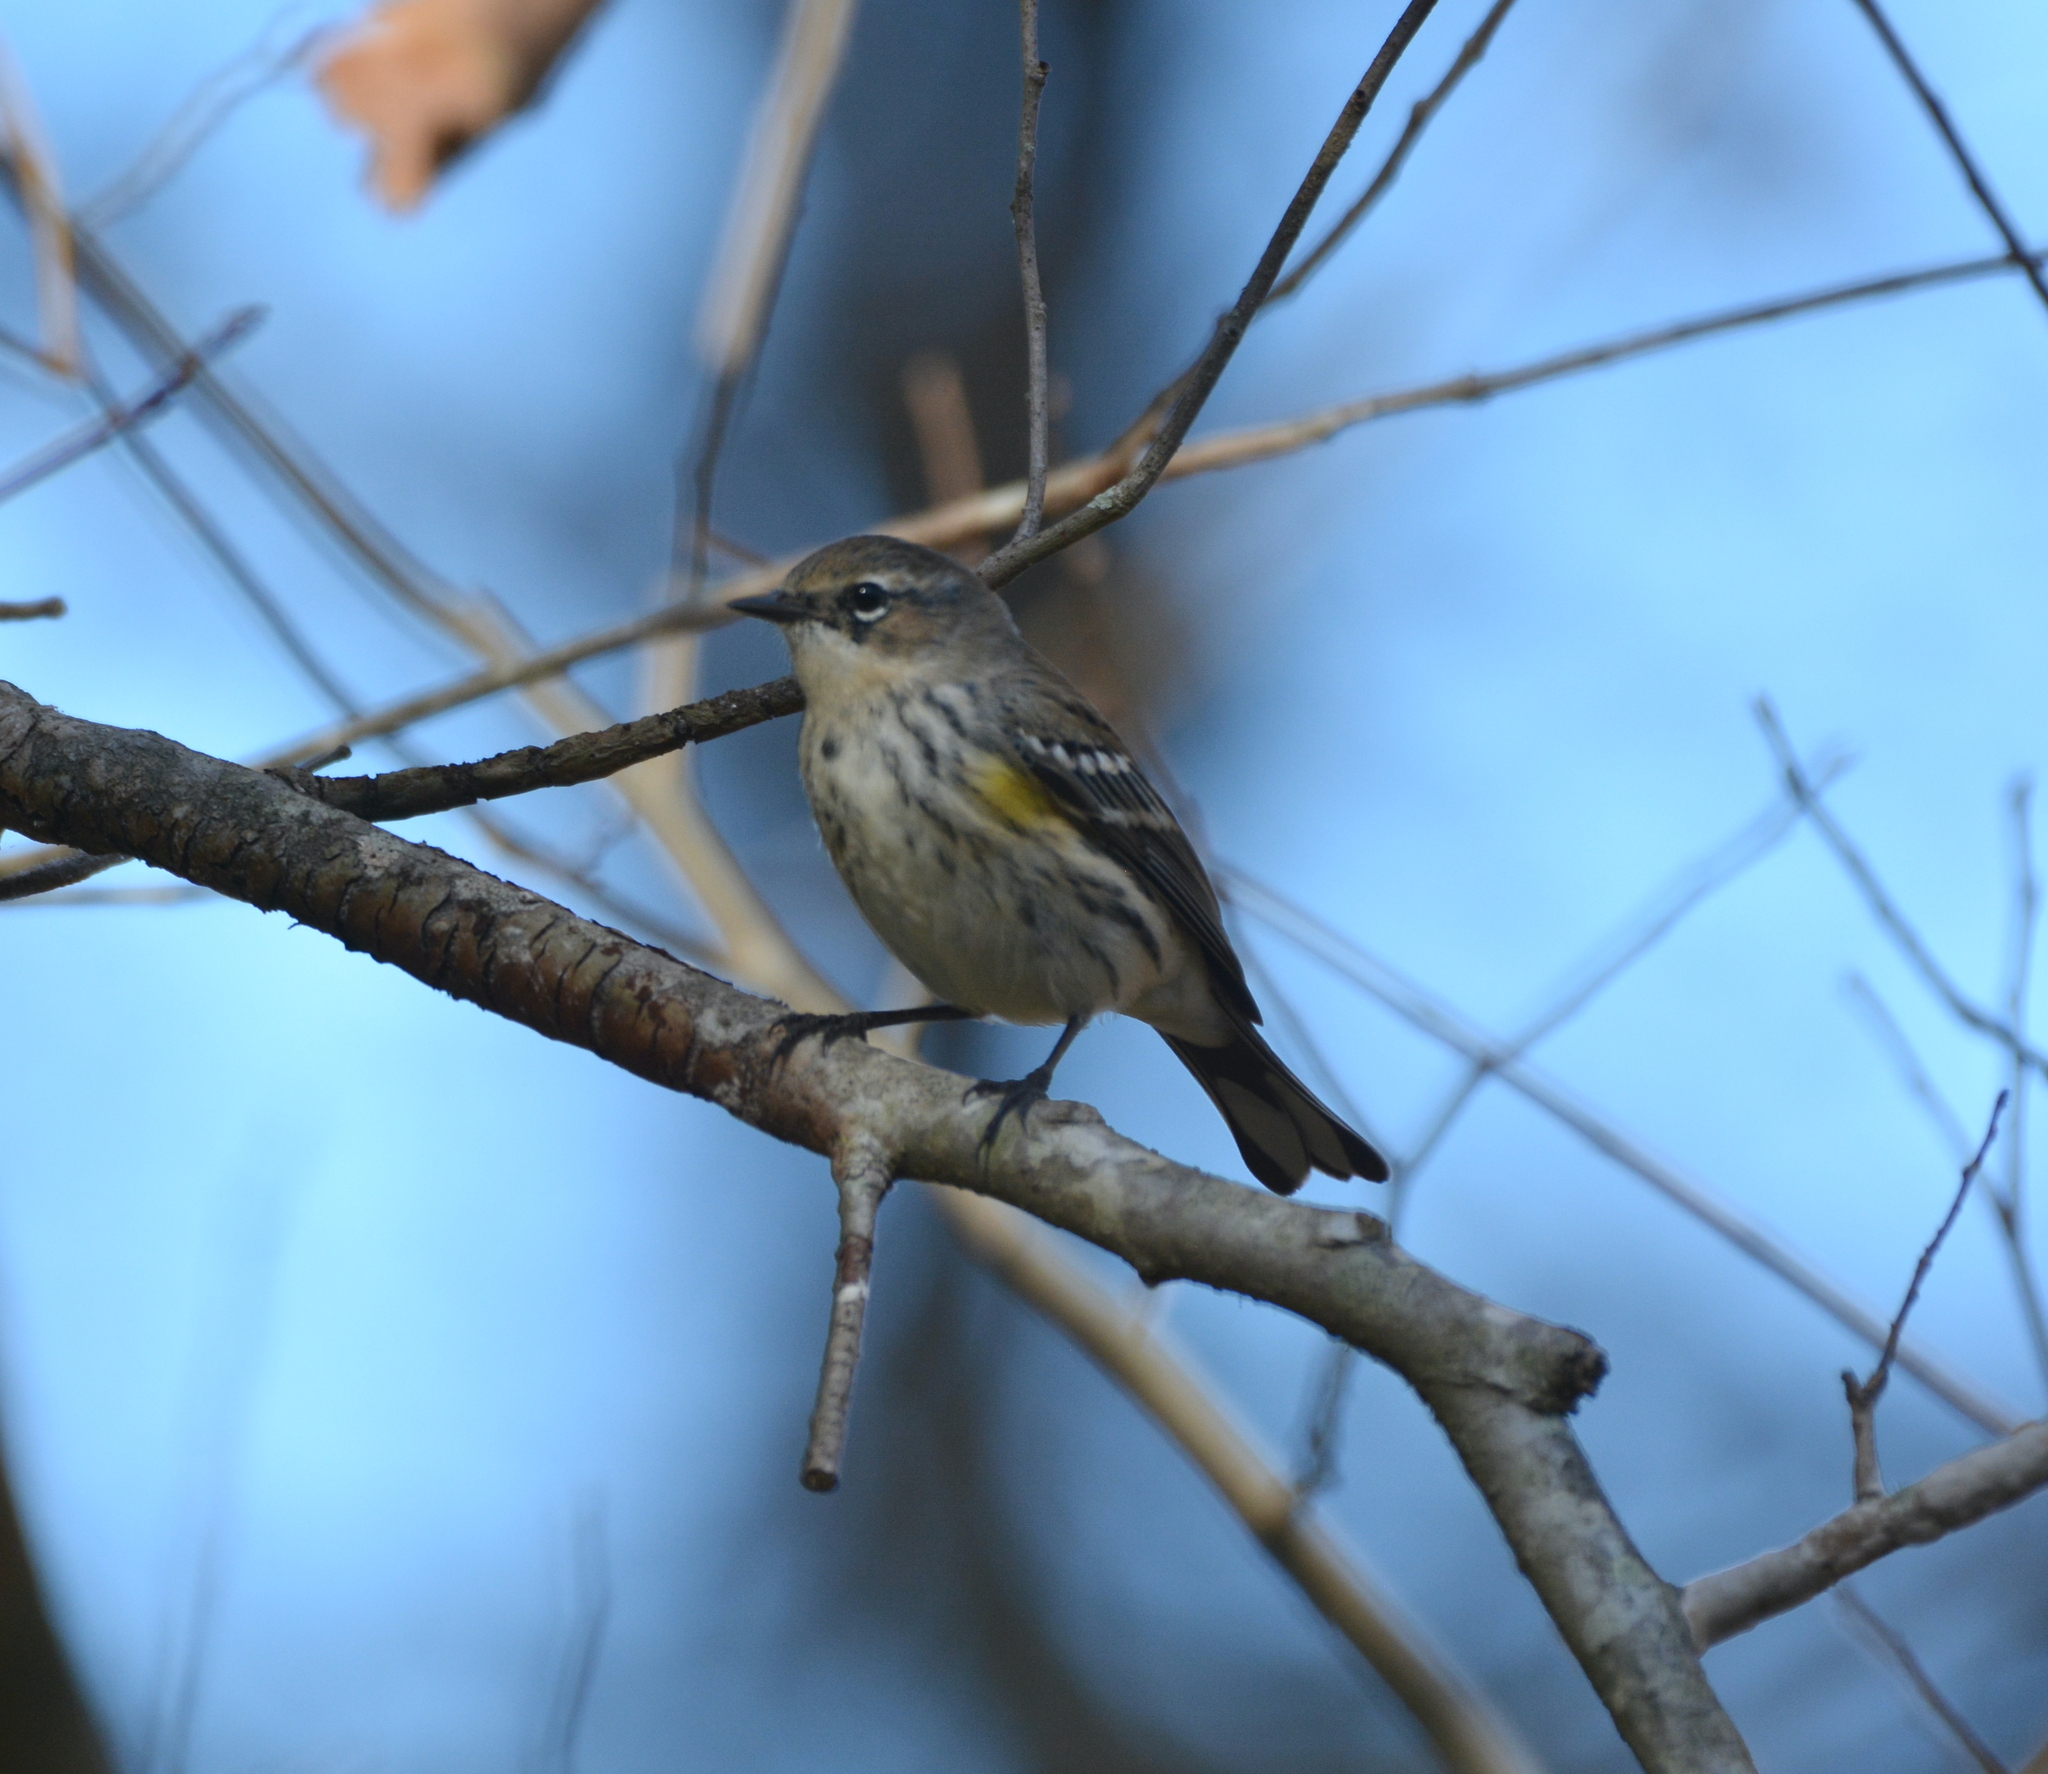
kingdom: Animalia
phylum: Chordata
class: Aves
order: Passeriformes
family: Parulidae
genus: Setophaga
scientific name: Setophaga coronata
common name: Myrtle warbler
